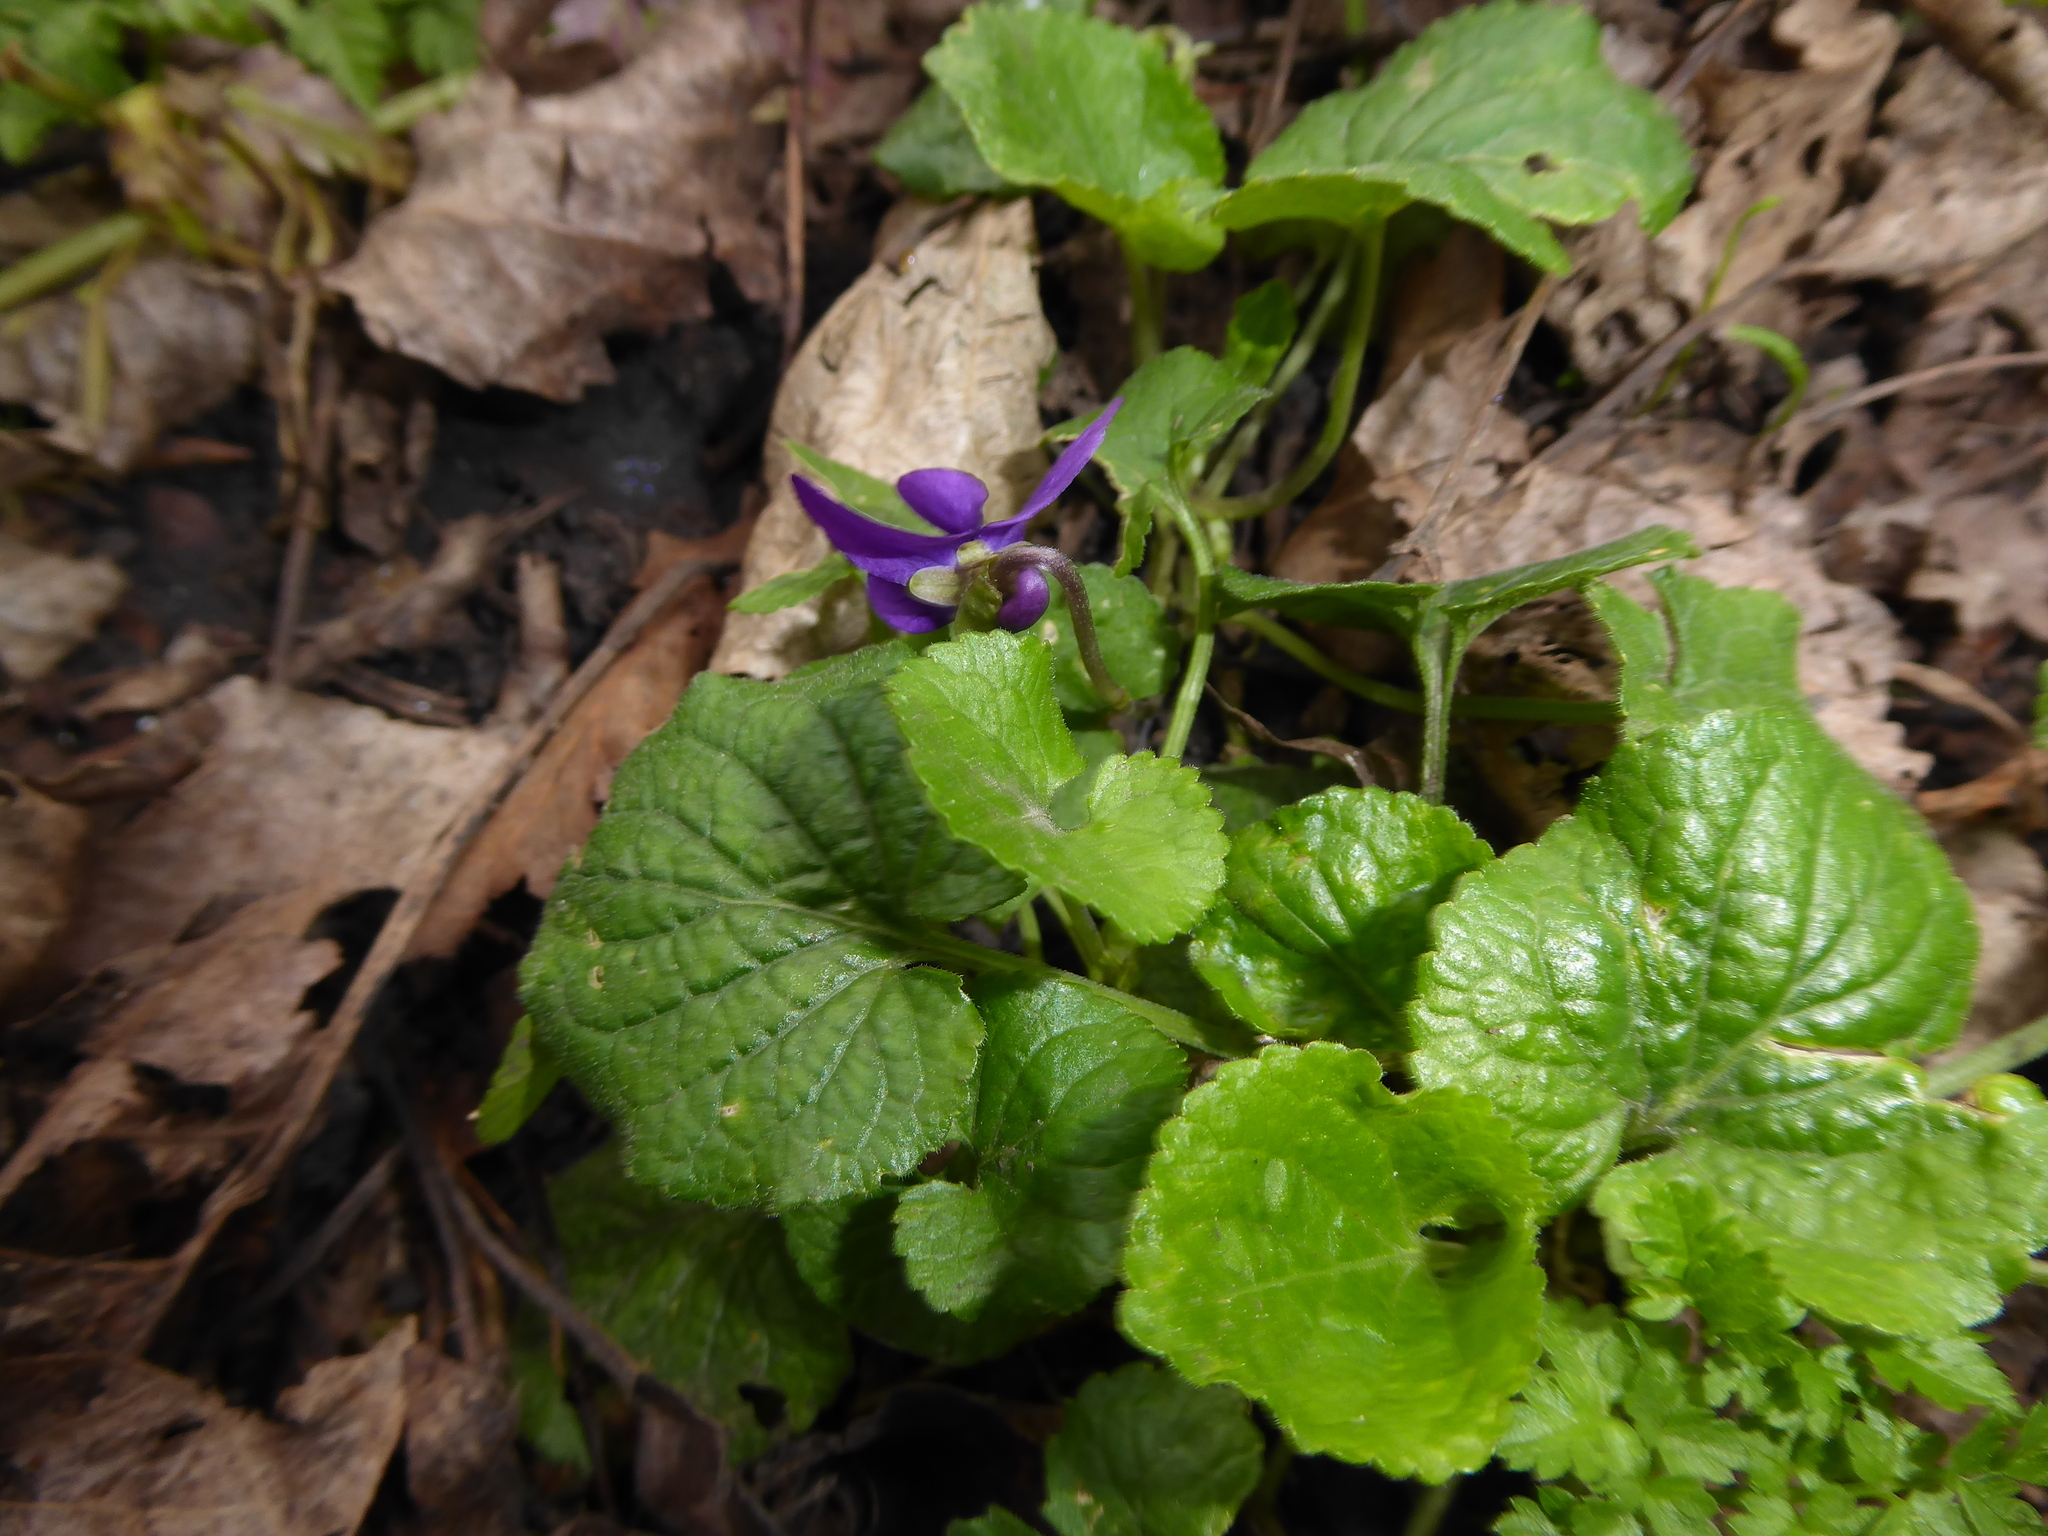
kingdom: Plantae
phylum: Tracheophyta
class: Magnoliopsida
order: Malpighiales
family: Violaceae
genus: Viola
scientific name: Viola odorata
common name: Sweet violet
